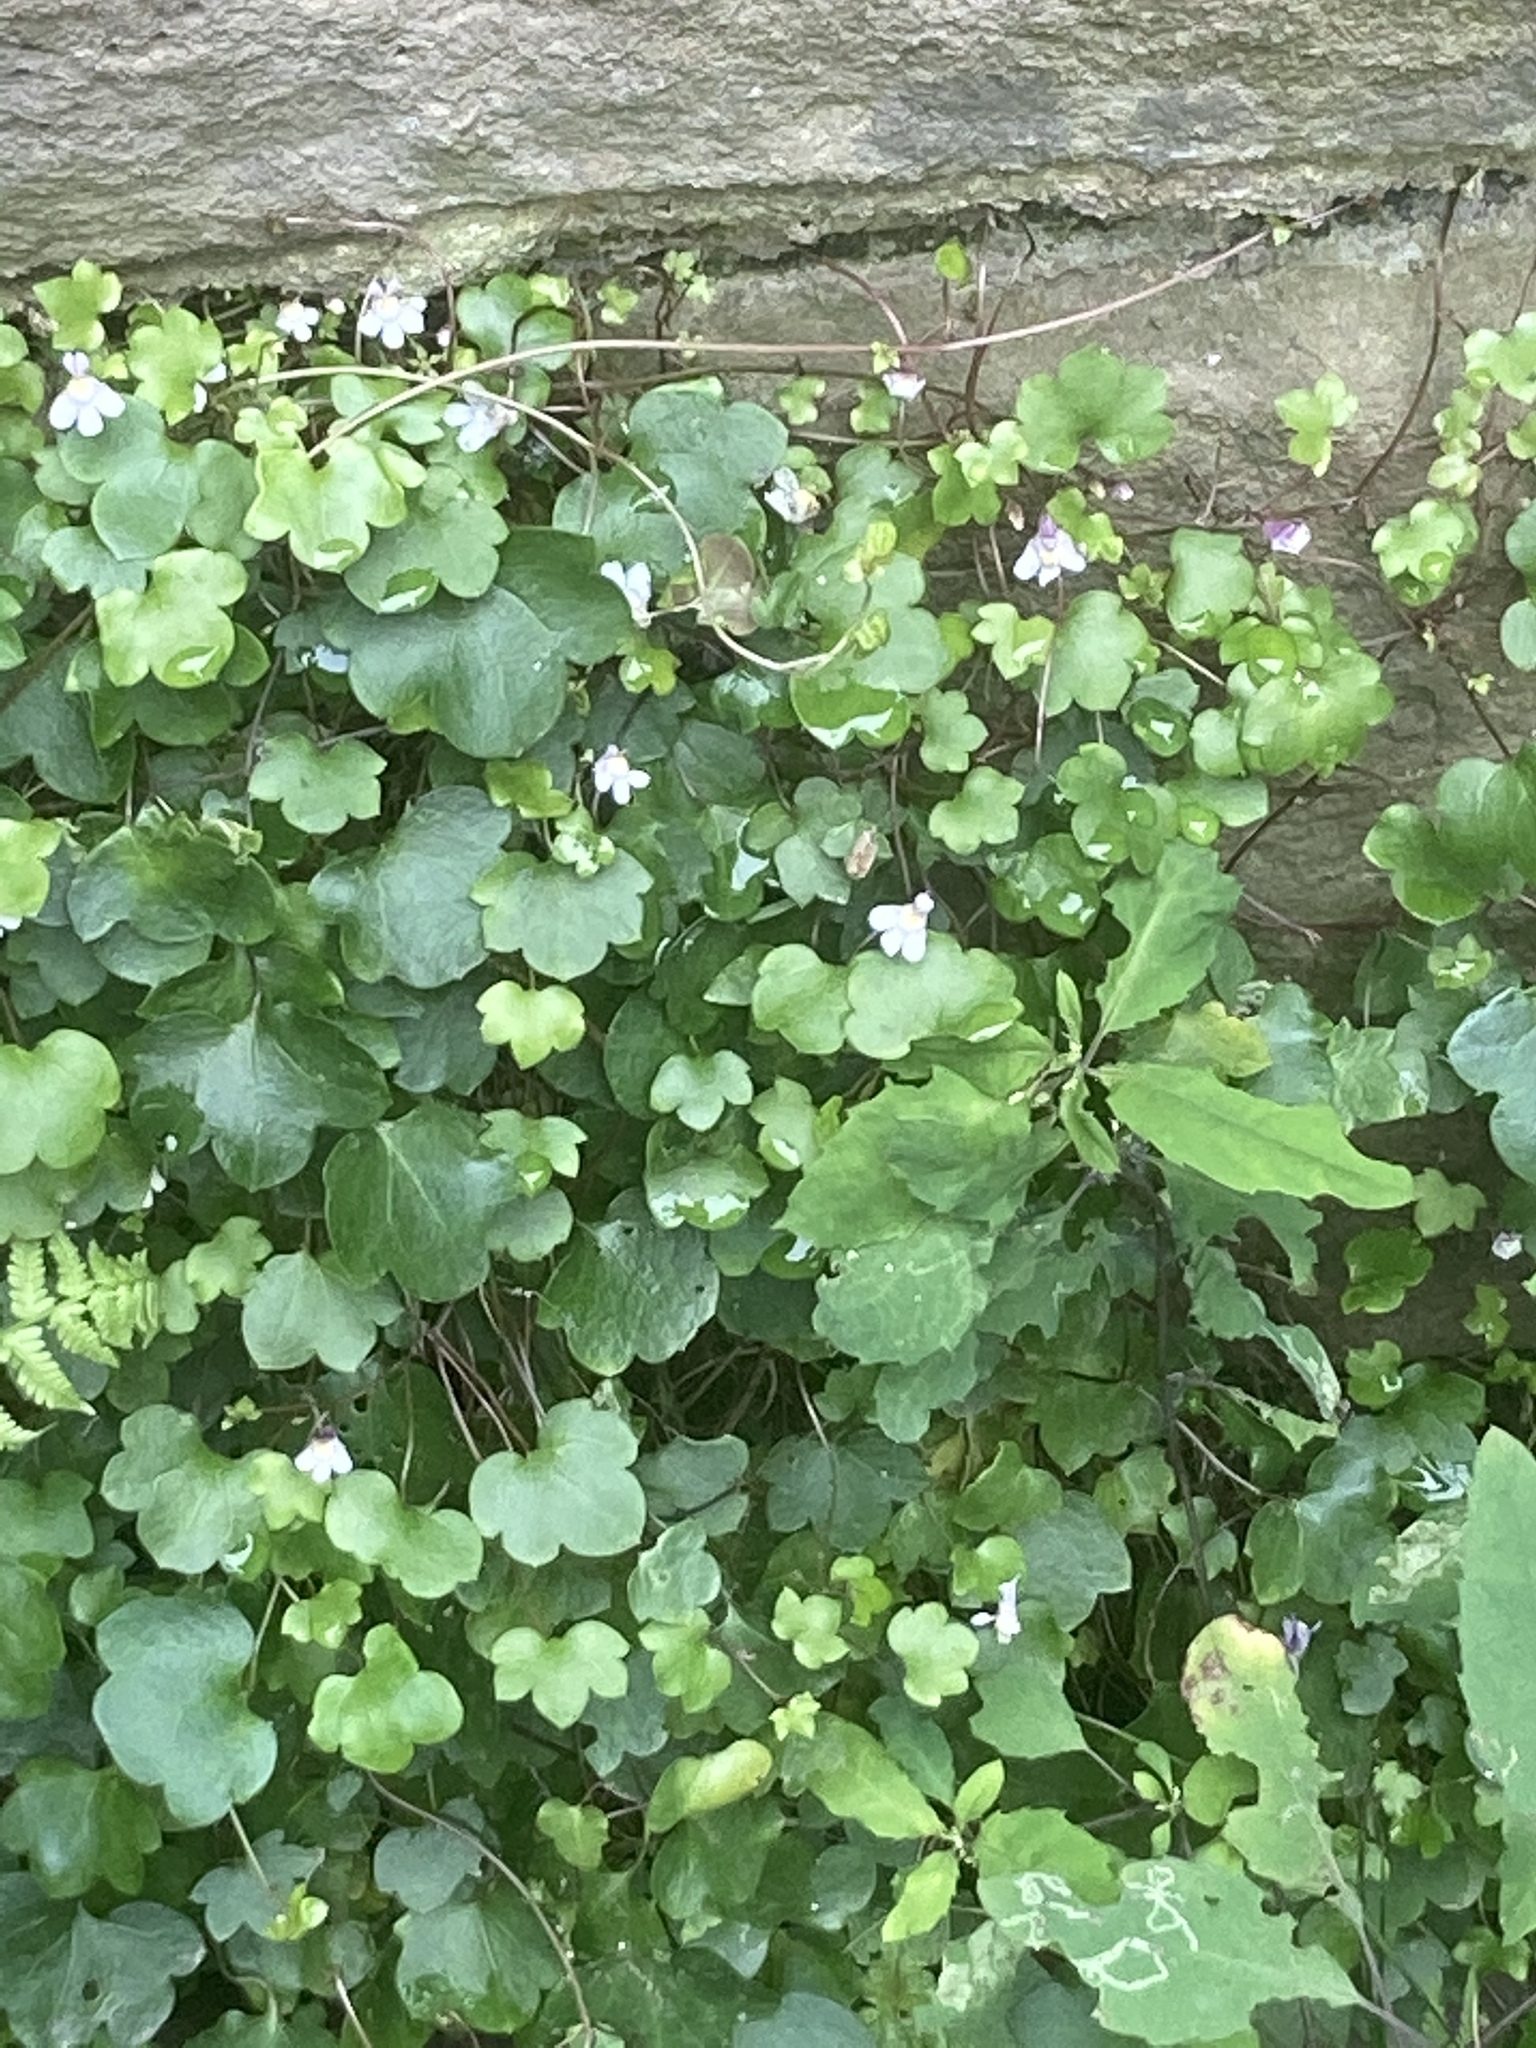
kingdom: Plantae
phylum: Tracheophyta
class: Magnoliopsida
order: Lamiales
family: Plantaginaceae
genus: Cymbalaria
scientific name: Cymbalaria muralis
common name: Ivy-leaved toadflax
